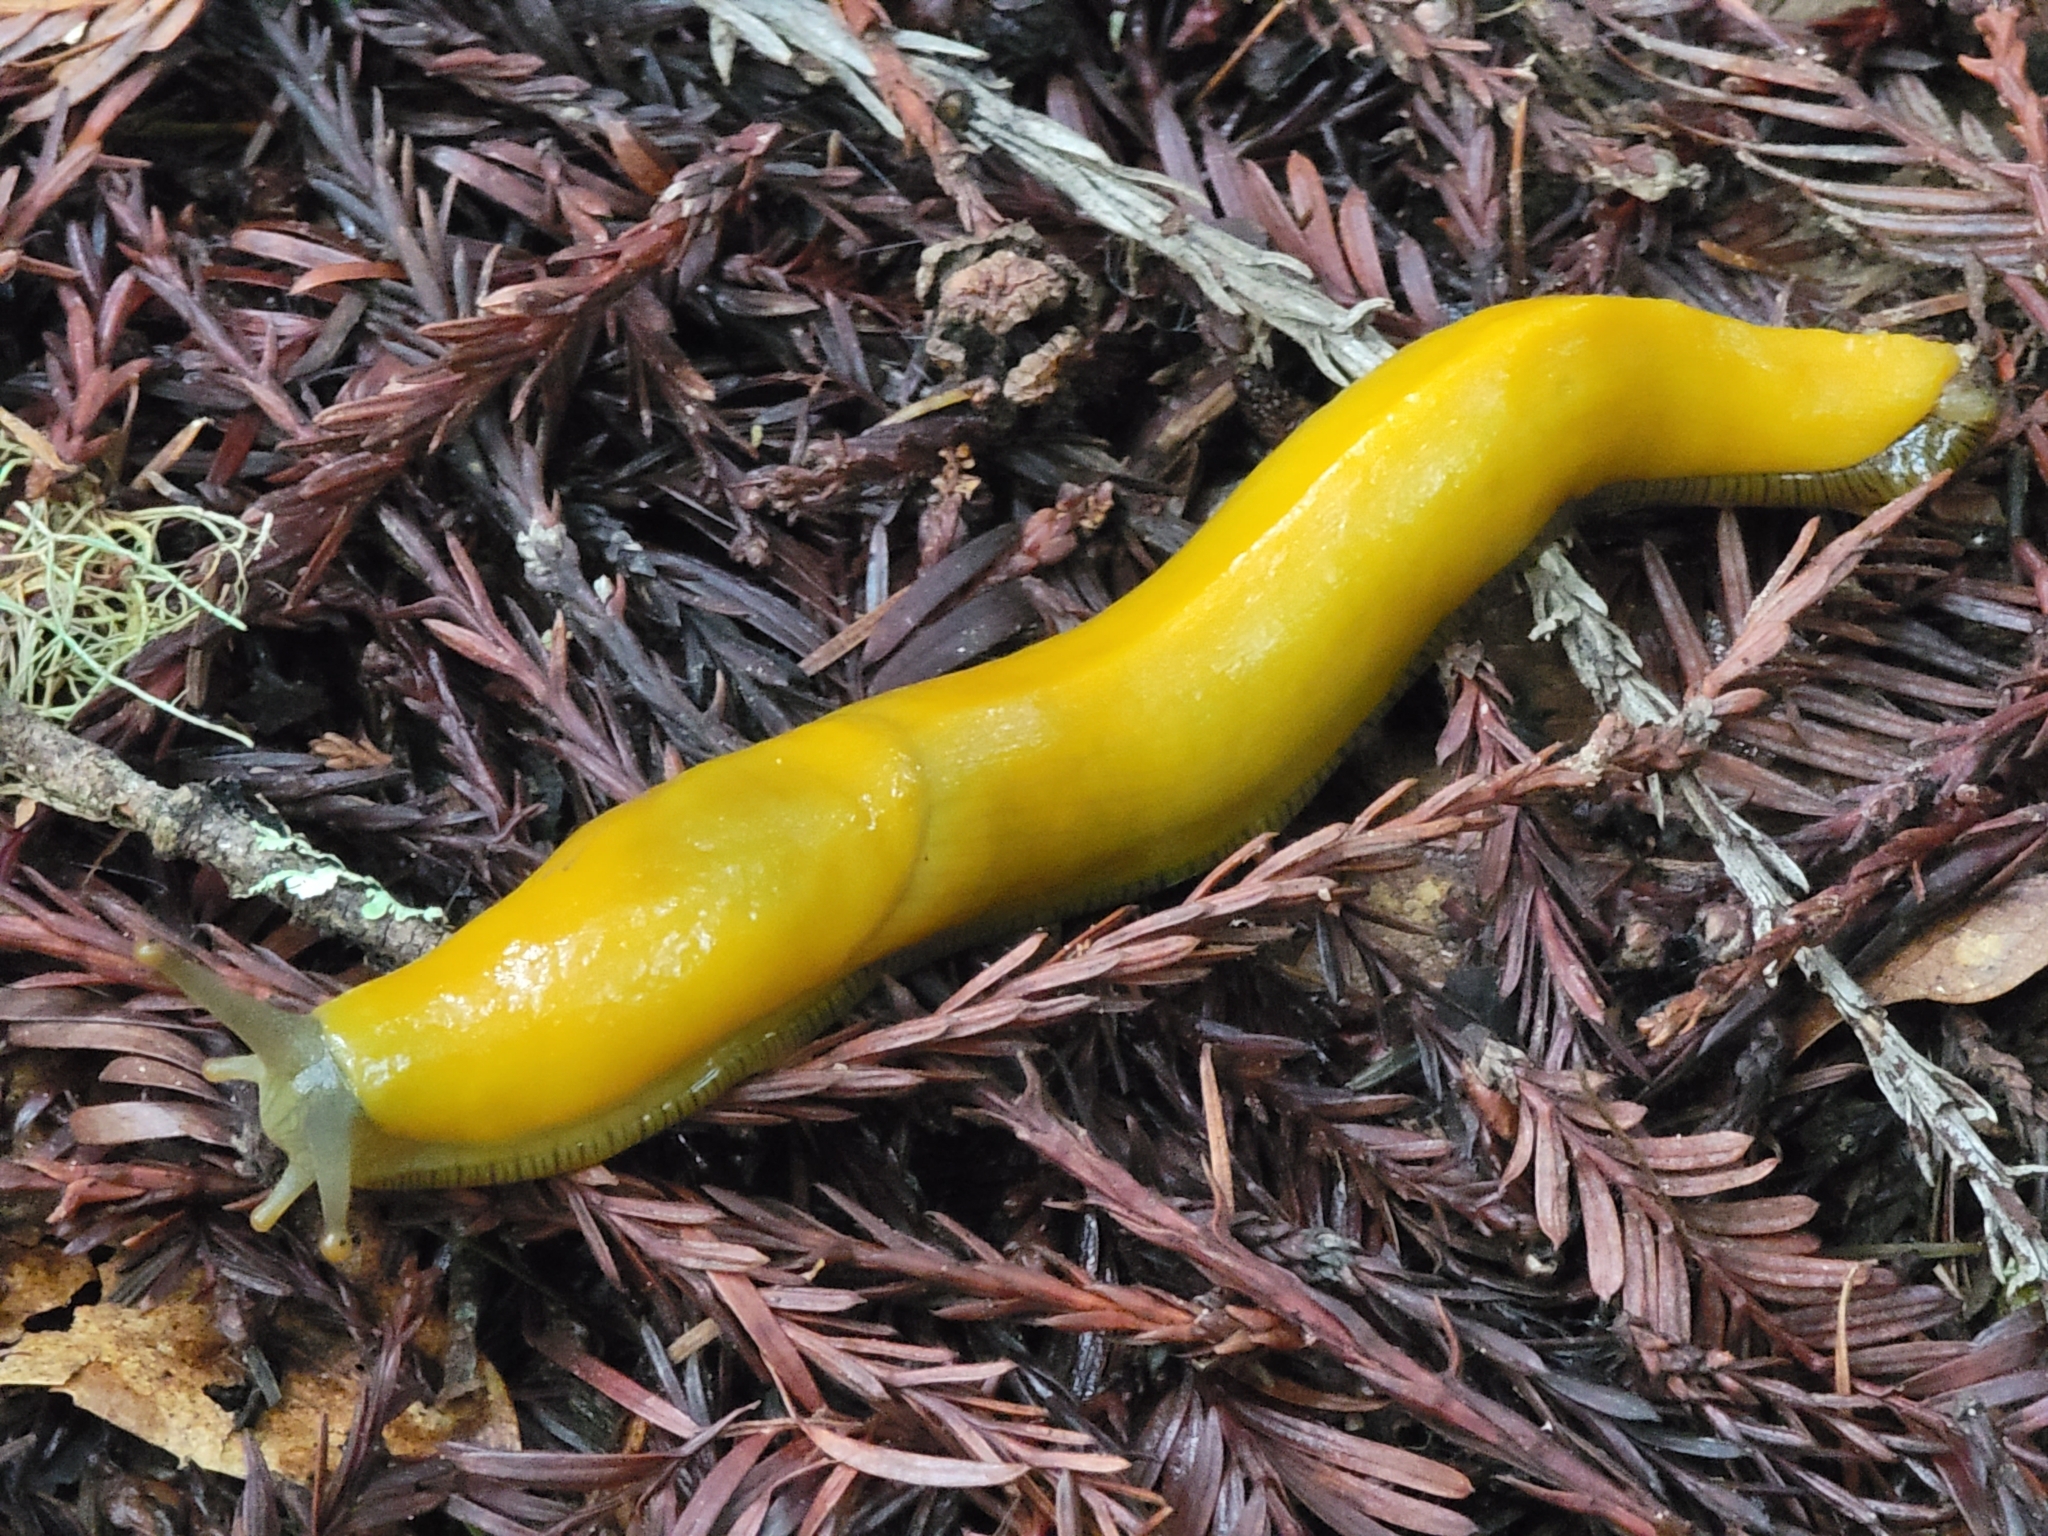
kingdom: Animalia
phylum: Mollusca
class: Gastropoda
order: Stylommatophora
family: Ariolimacidae
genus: Ariolimax
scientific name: Ariolimax dolichophallus
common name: Slender banana slug
